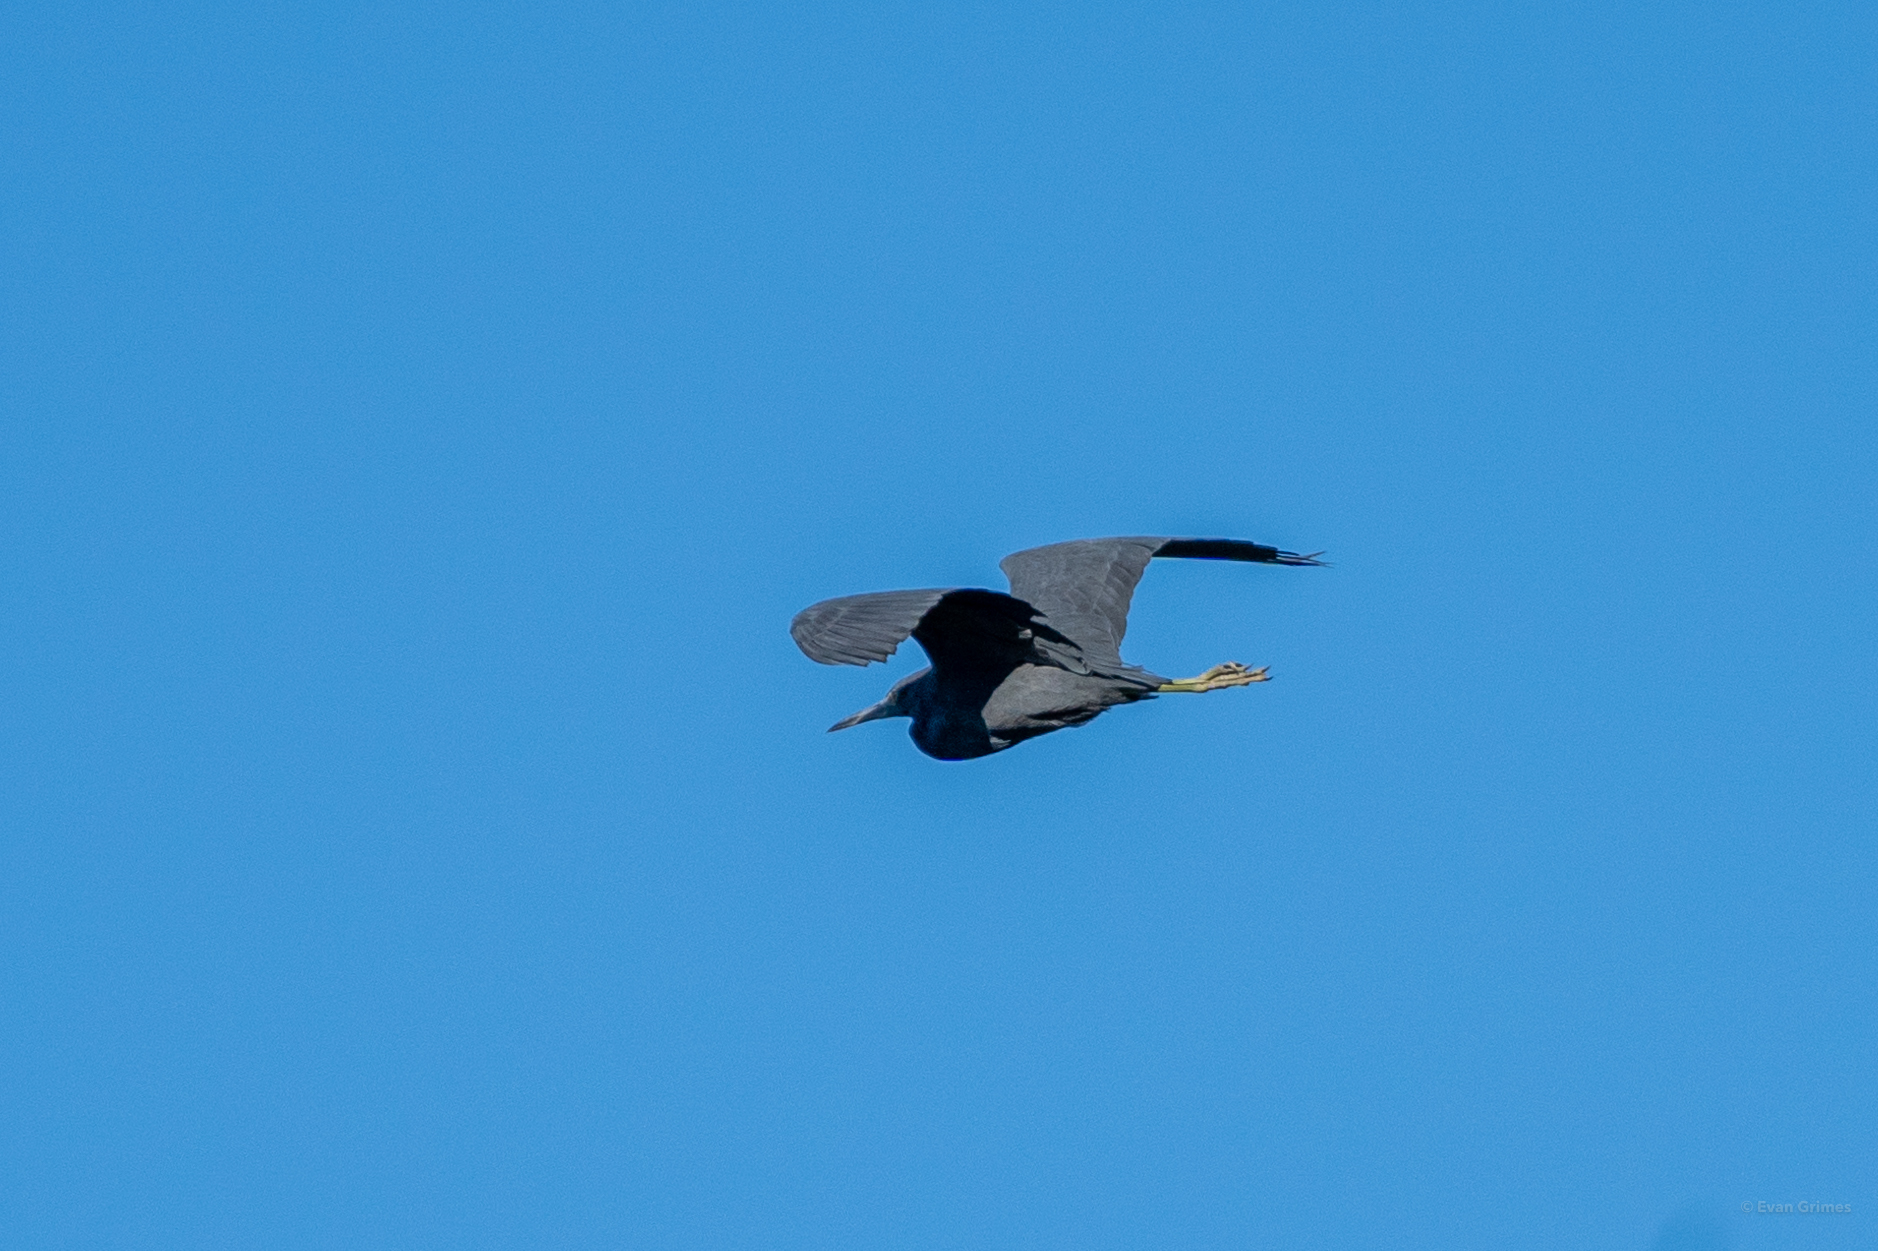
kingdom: Animalia
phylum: Chordata
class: Aves
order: Pelecaniformes
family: Ardeidae
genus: Egretta
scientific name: Egretta caerulea
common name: Little blue heron
